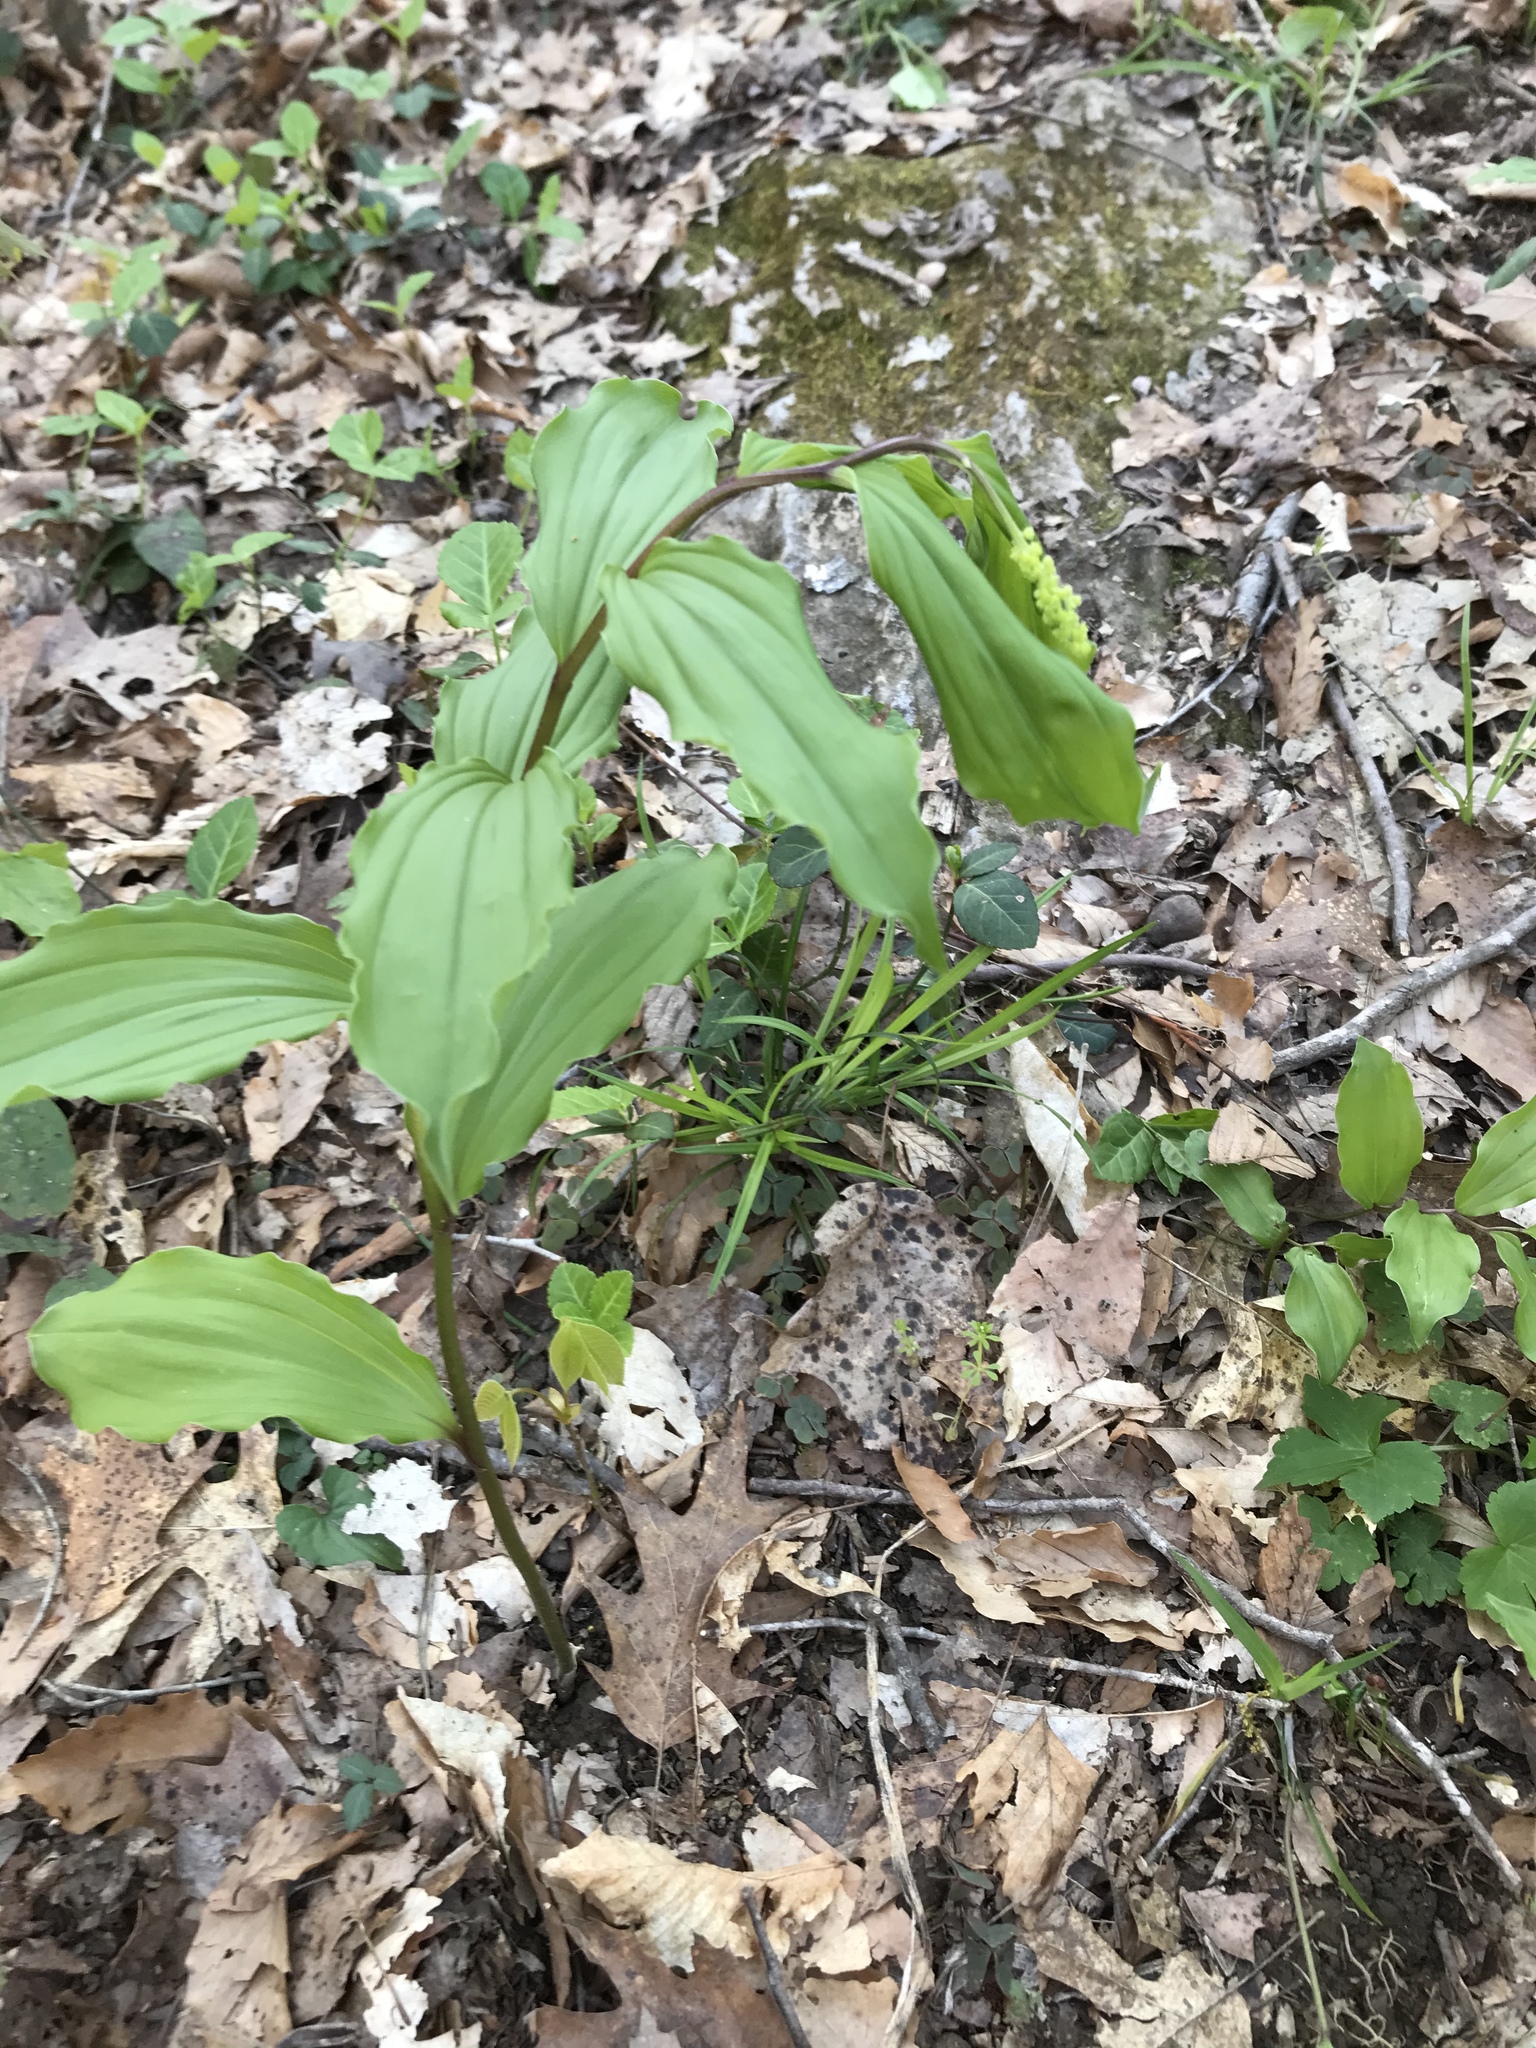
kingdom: Plantae
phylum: Tracheophyta
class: Liliopsida
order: Asparagales
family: Asparagaceae
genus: Maianthemum
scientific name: Maianthemum racemosum
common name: False spikenard
